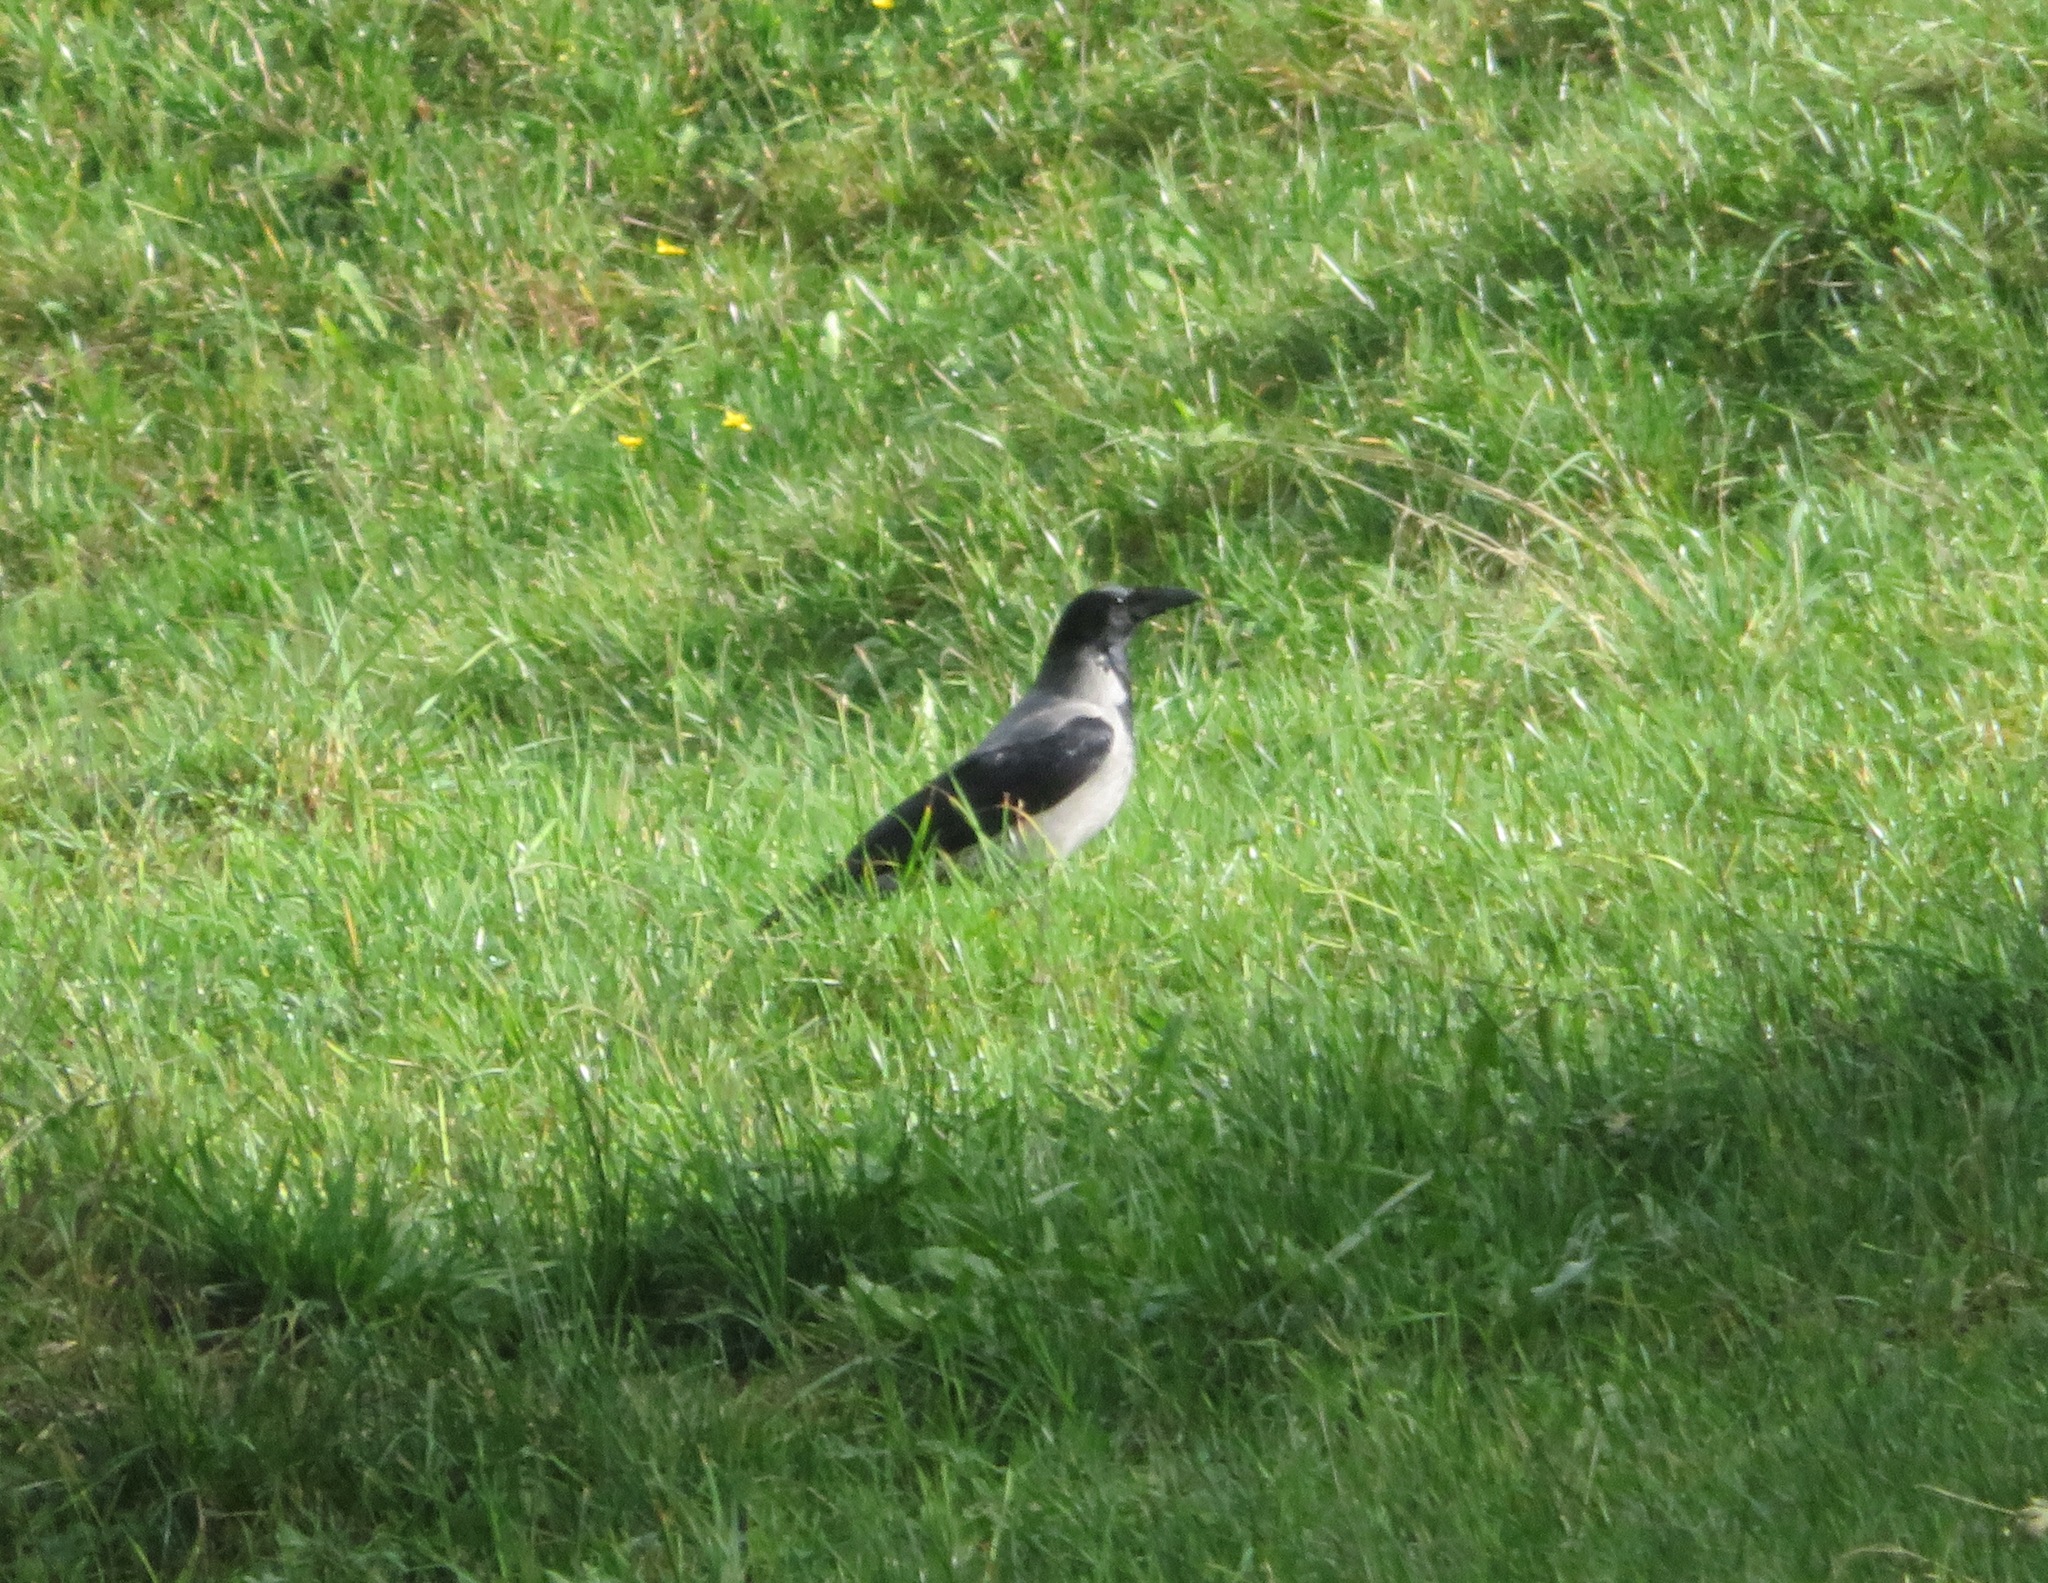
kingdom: Animalia
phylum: Chordata
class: Aves
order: Passeriformes
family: Corvidae
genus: Corvus
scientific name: Corvus cornix
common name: Hooded crow
